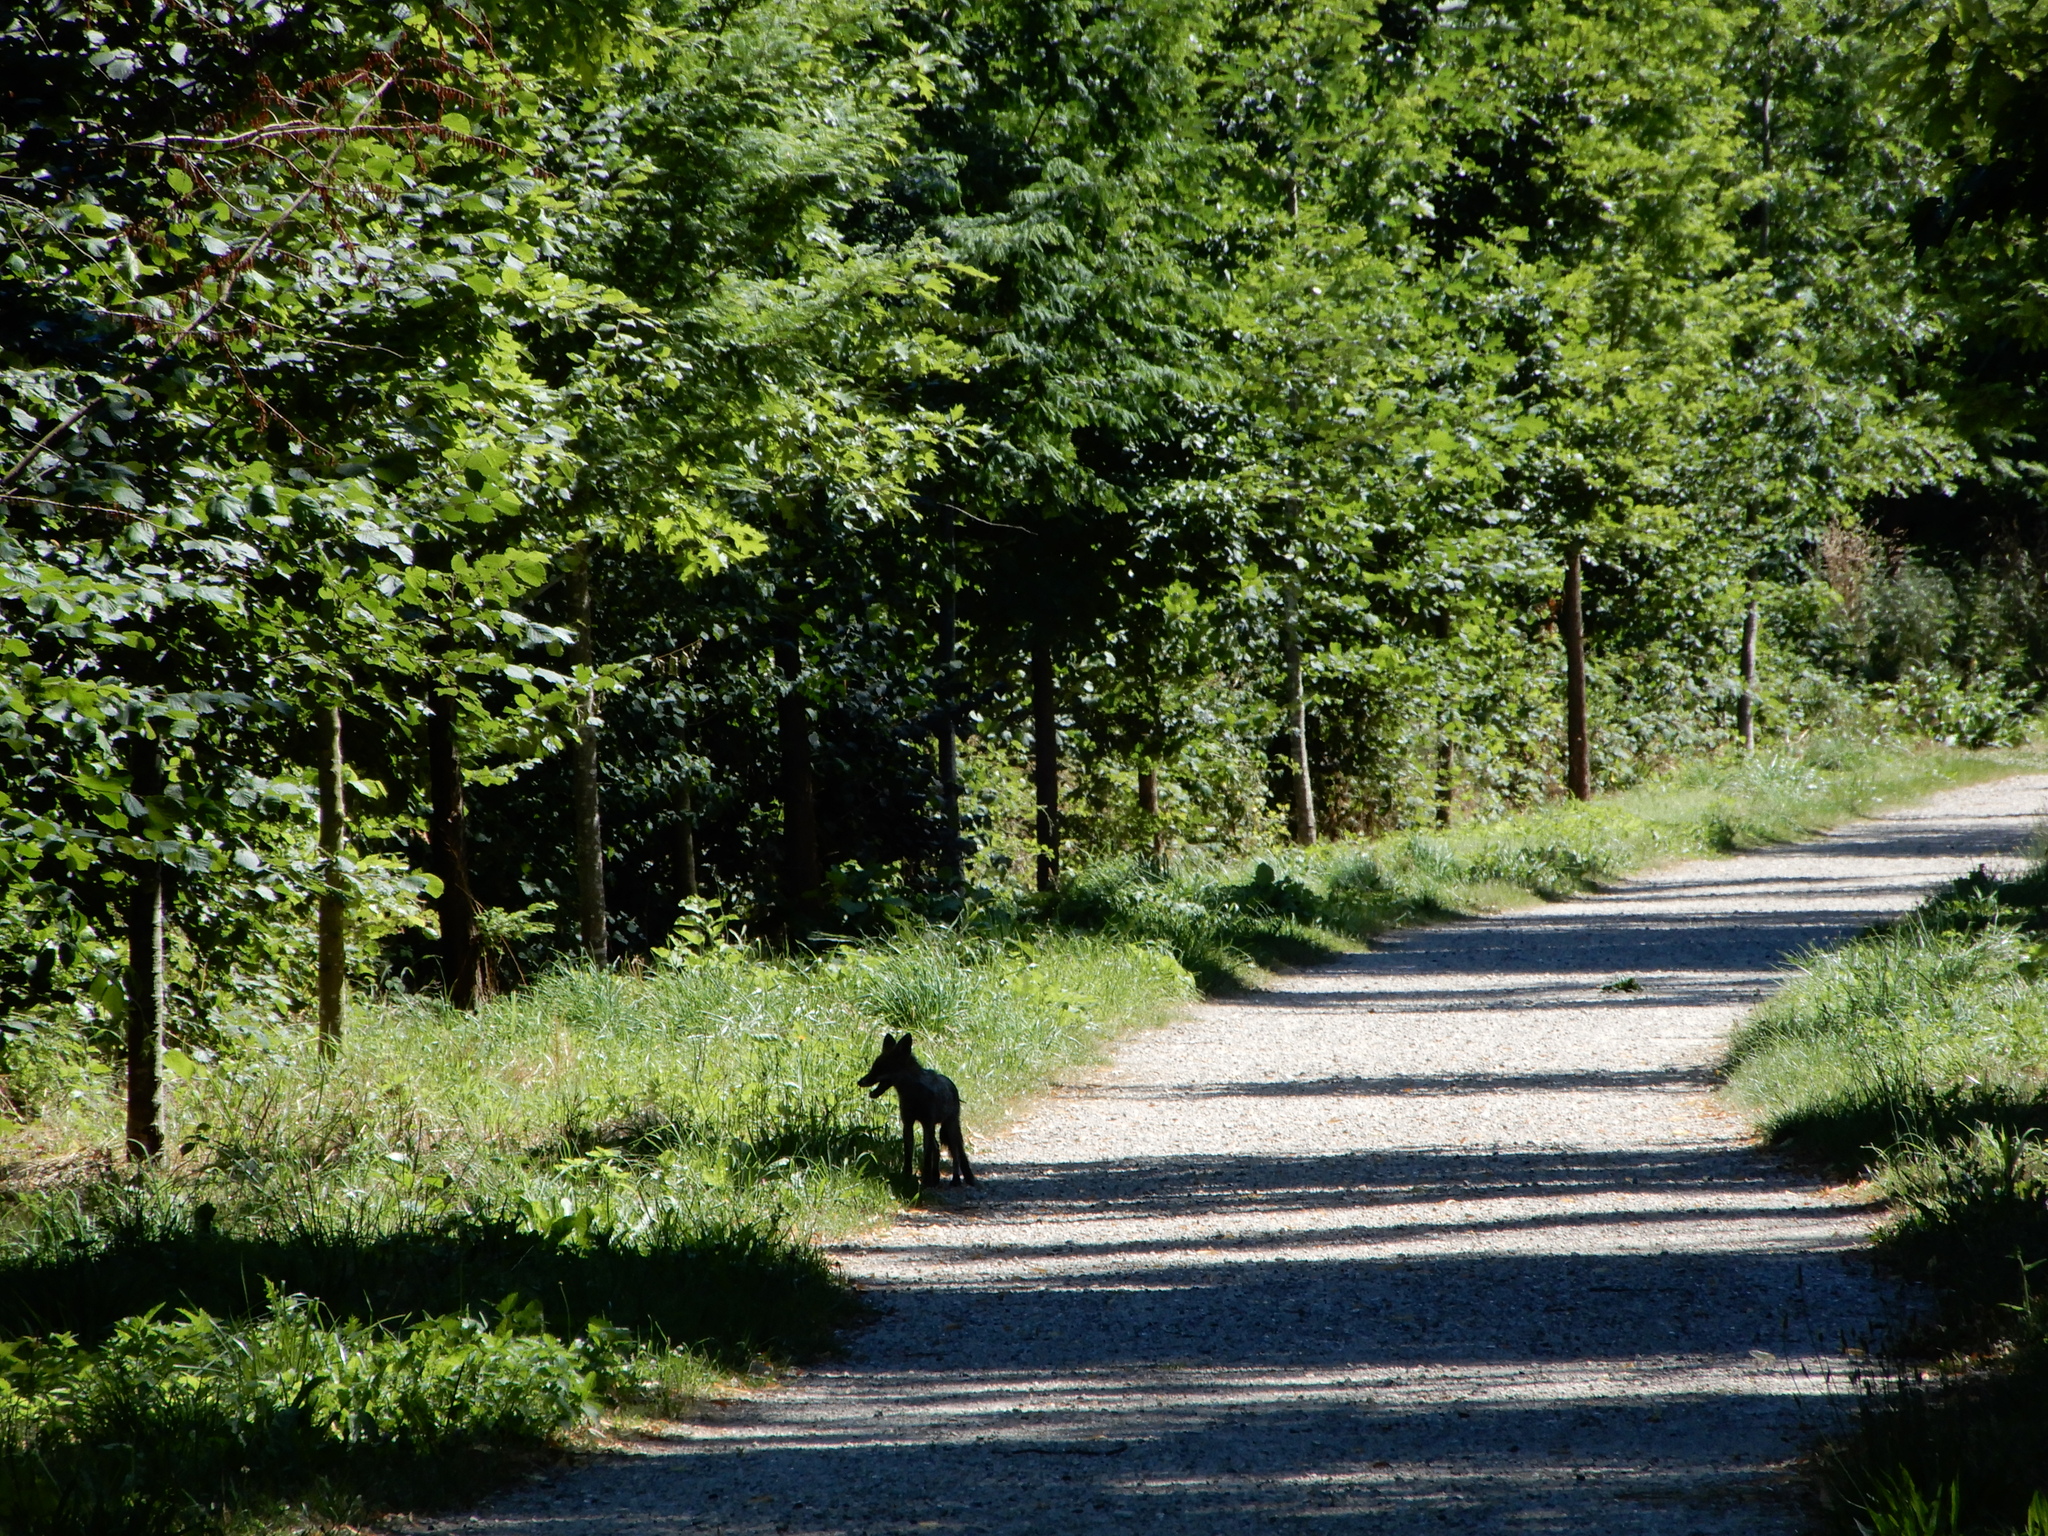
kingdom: Animalia
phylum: Chordata
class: Mammalia
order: Carnivora
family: Canidae
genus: Vulpes
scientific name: Vulpes vulpes
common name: Red fox
